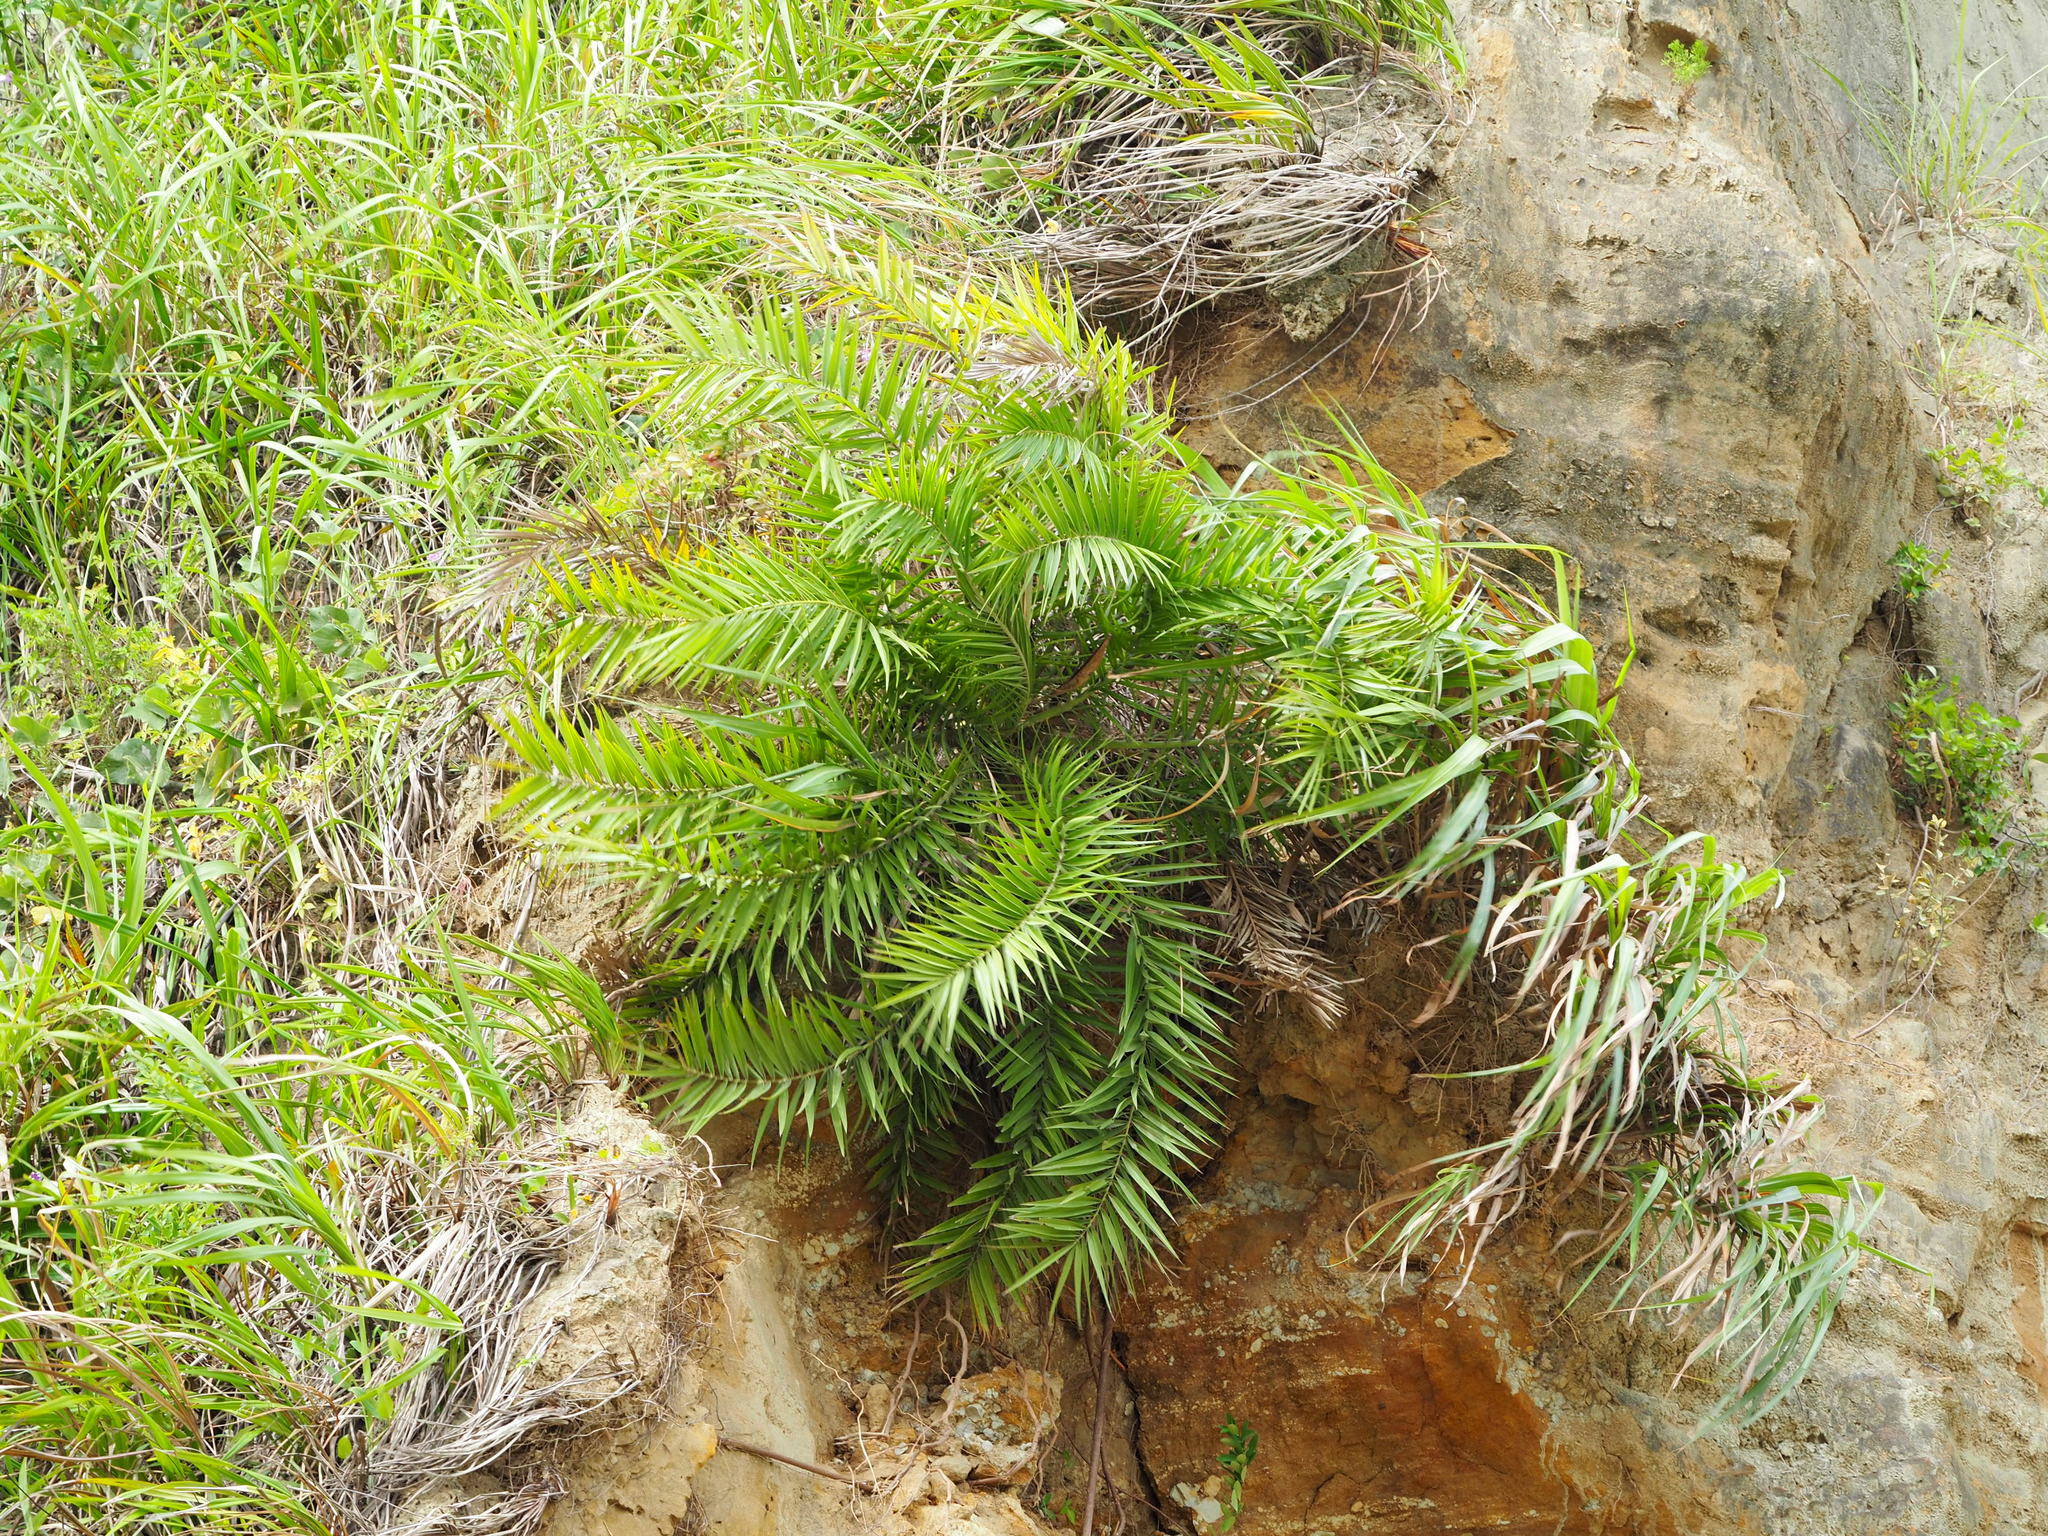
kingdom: Plantae
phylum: Tracheophyta
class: Liliopsida
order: Arecales
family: Arecaceae
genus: Phoenix
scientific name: Phoenix loureiroi
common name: Loureiro's palm
